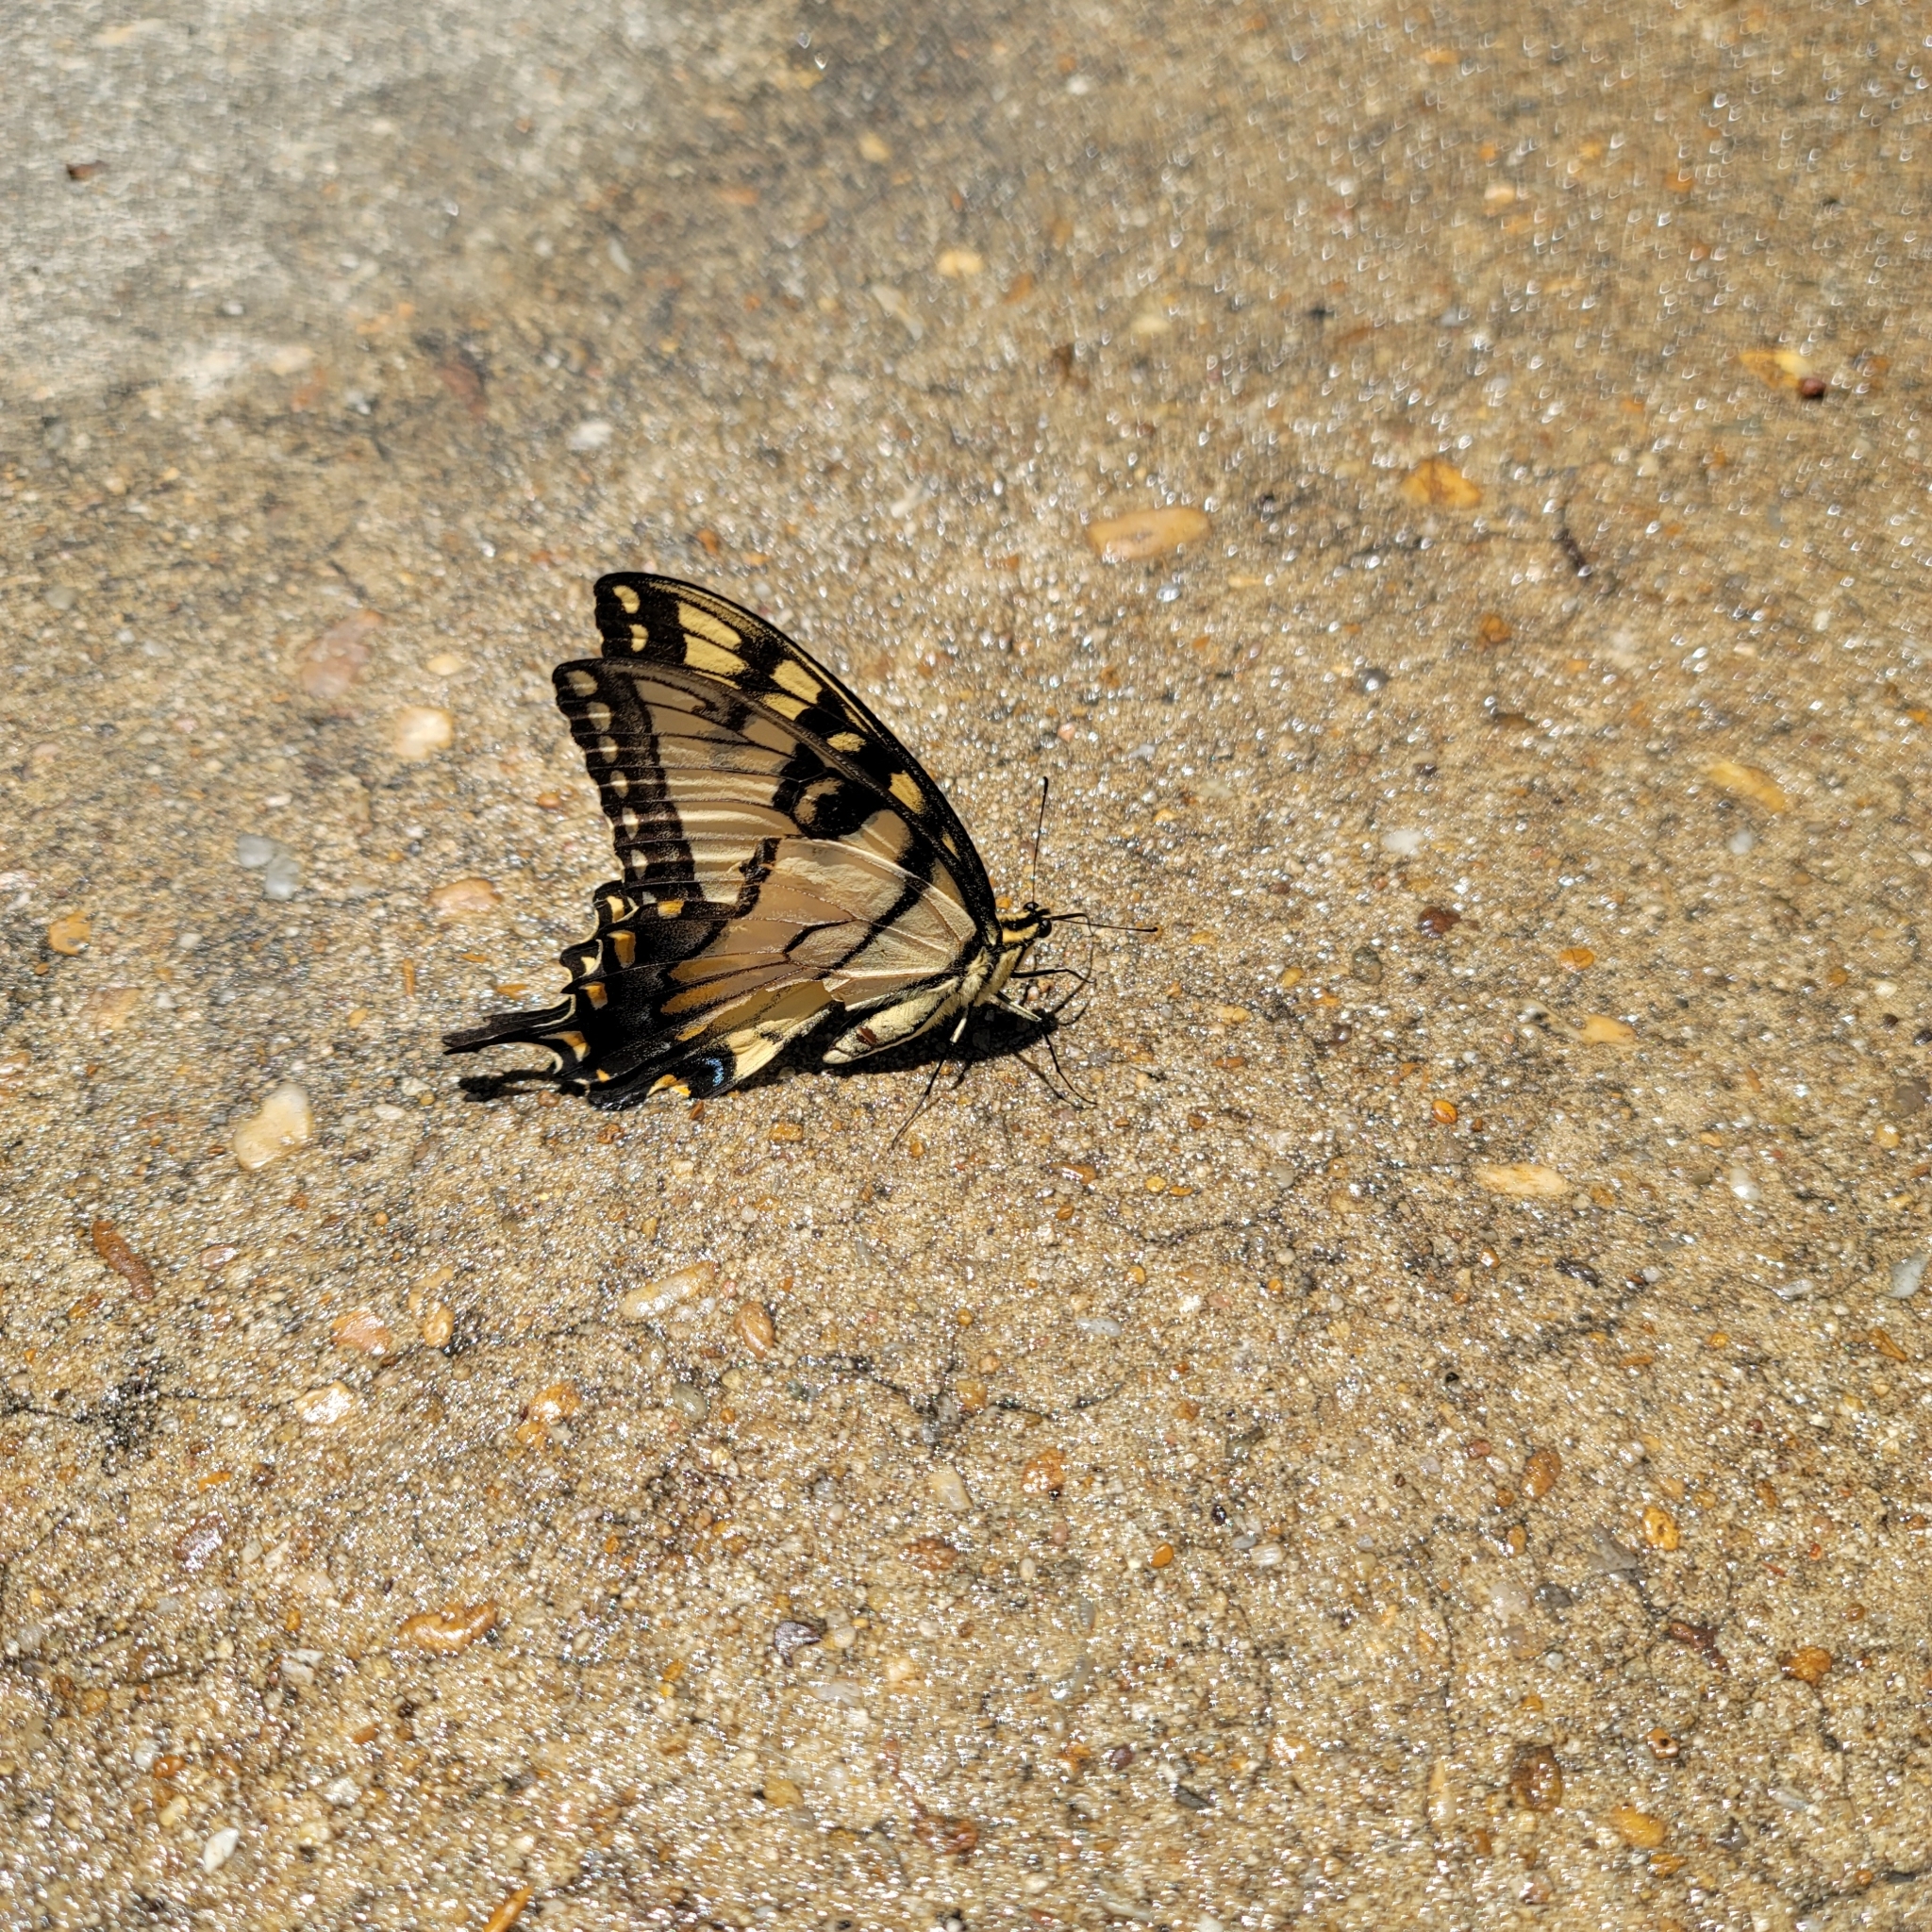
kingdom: Animalia
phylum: Arthropoda
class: Insecta
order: Lepidoptera
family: Papilionidae
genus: Papilio
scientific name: Papilio glaucus
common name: Tiger swallowtail
